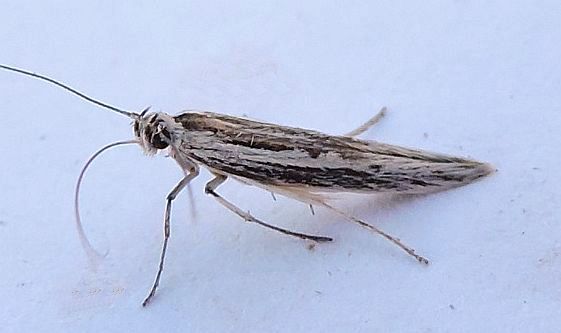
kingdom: Animalia
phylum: Arthropoda
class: Insecta
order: Lepidoptera
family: Scythrididae
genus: Neoscythris
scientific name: Neoscythris fissirostris
